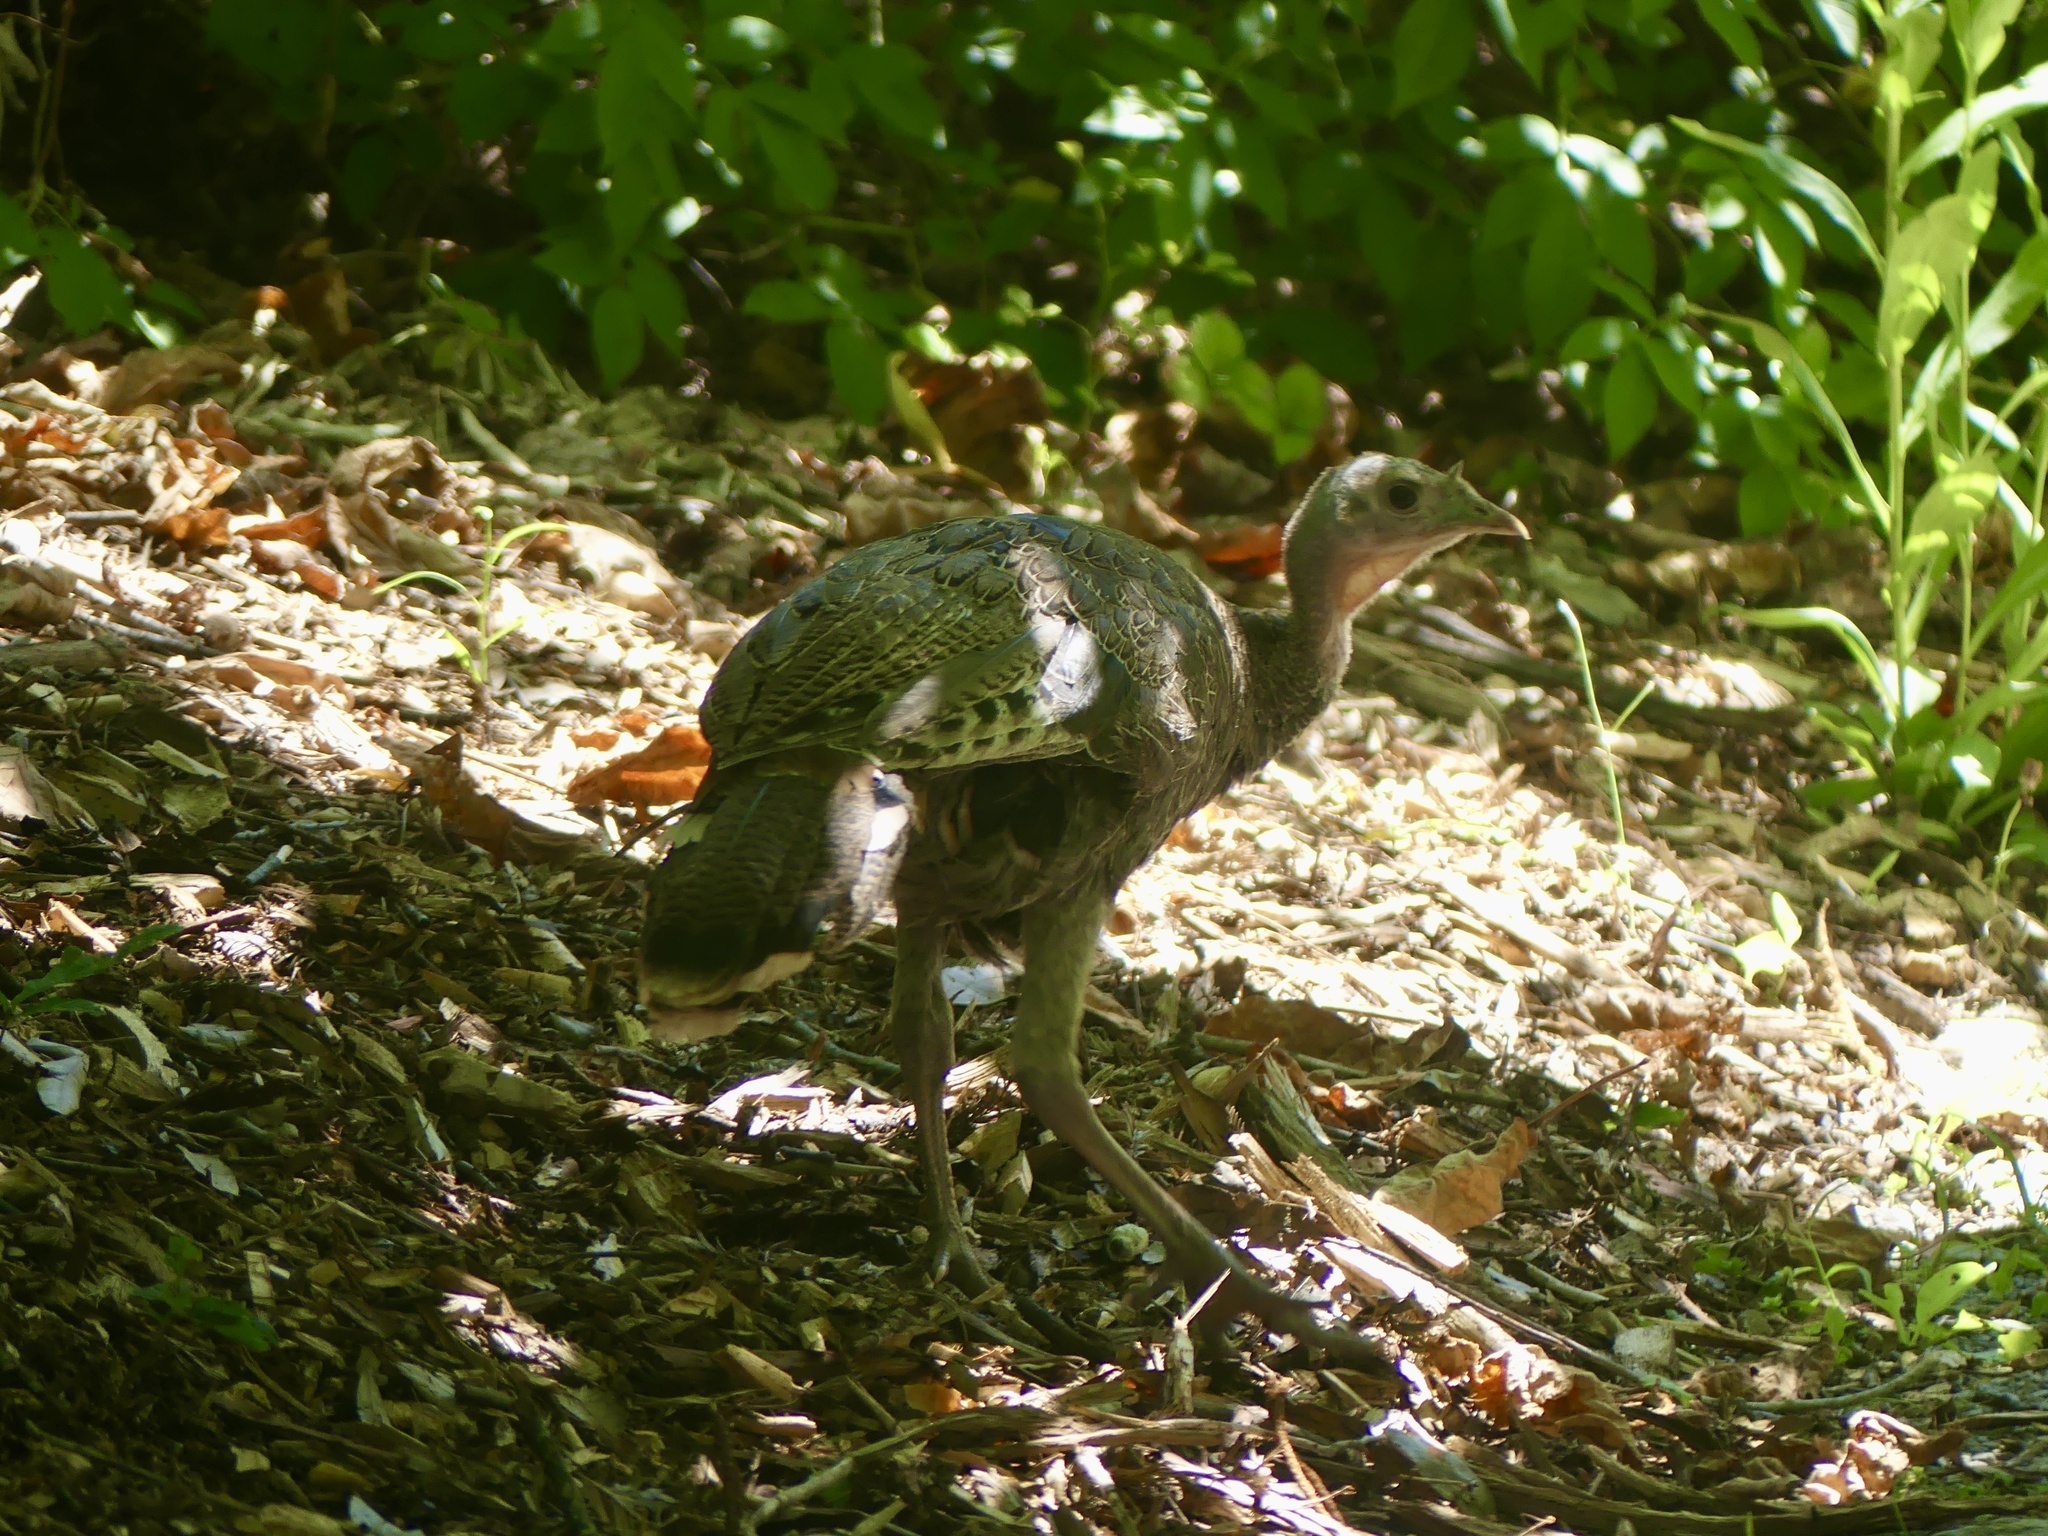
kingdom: Animalia
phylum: Chordata
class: Aves
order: Galliformes
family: Phasianidae
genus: Meleagris
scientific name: Meleagris gallopavo
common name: Wild turkey
